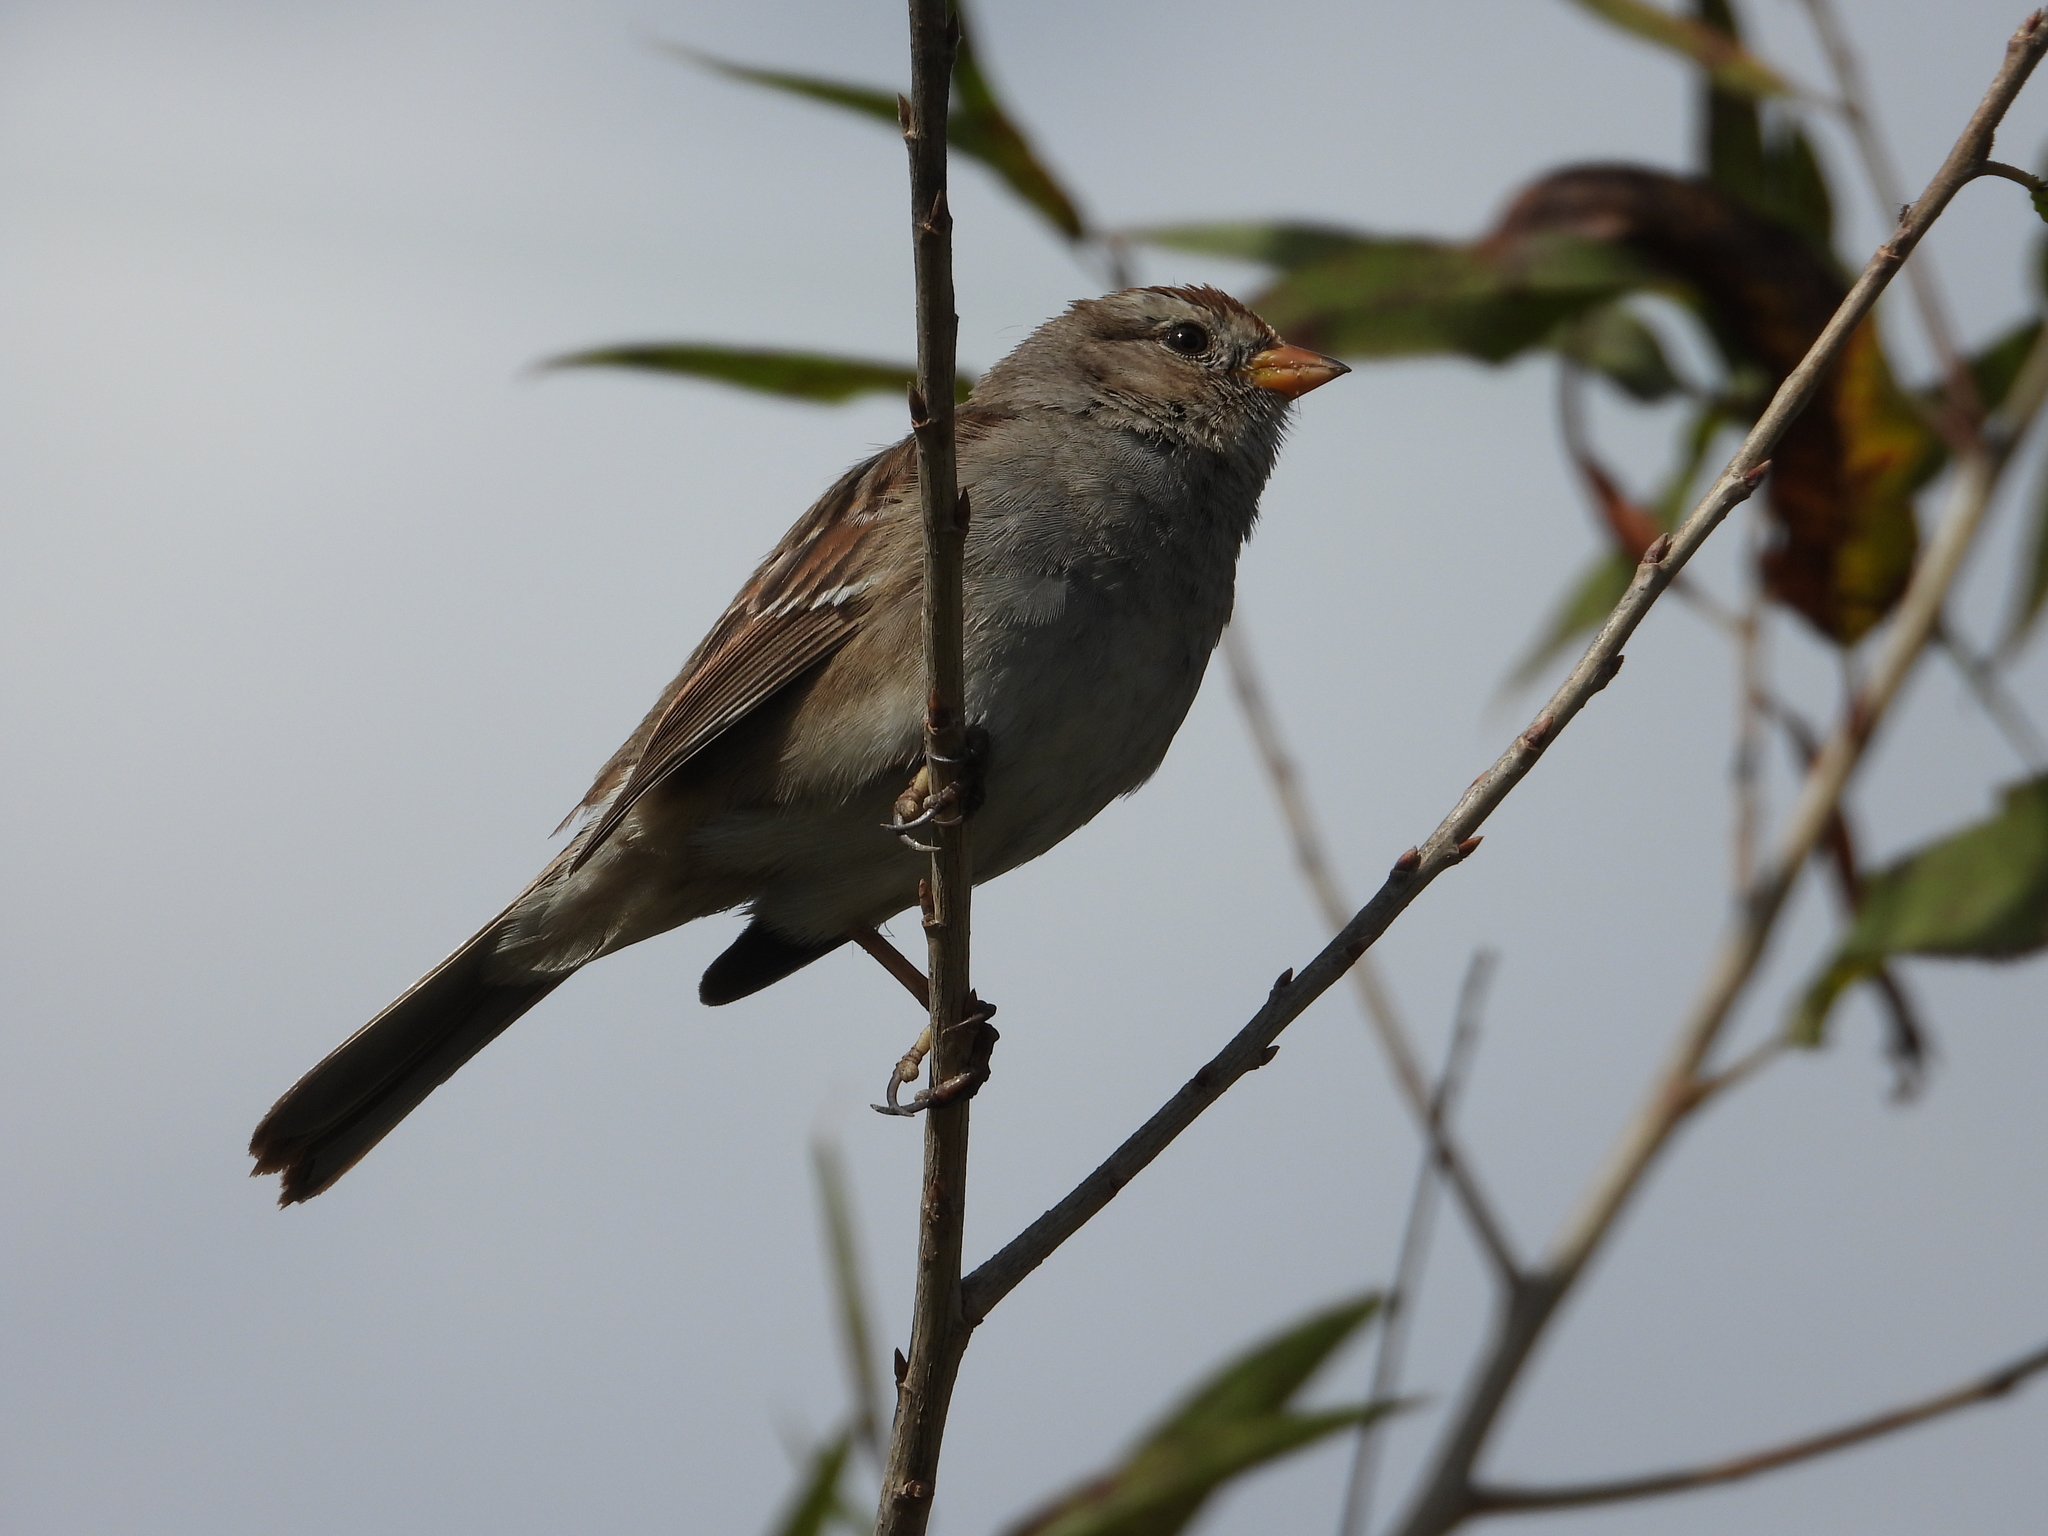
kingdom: Animalia
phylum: Chordata
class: Aves
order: Passeriformes
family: Passerellidae
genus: Zonotrichia
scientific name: Zonotrichia leucophrys
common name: White-crowned sparrow
